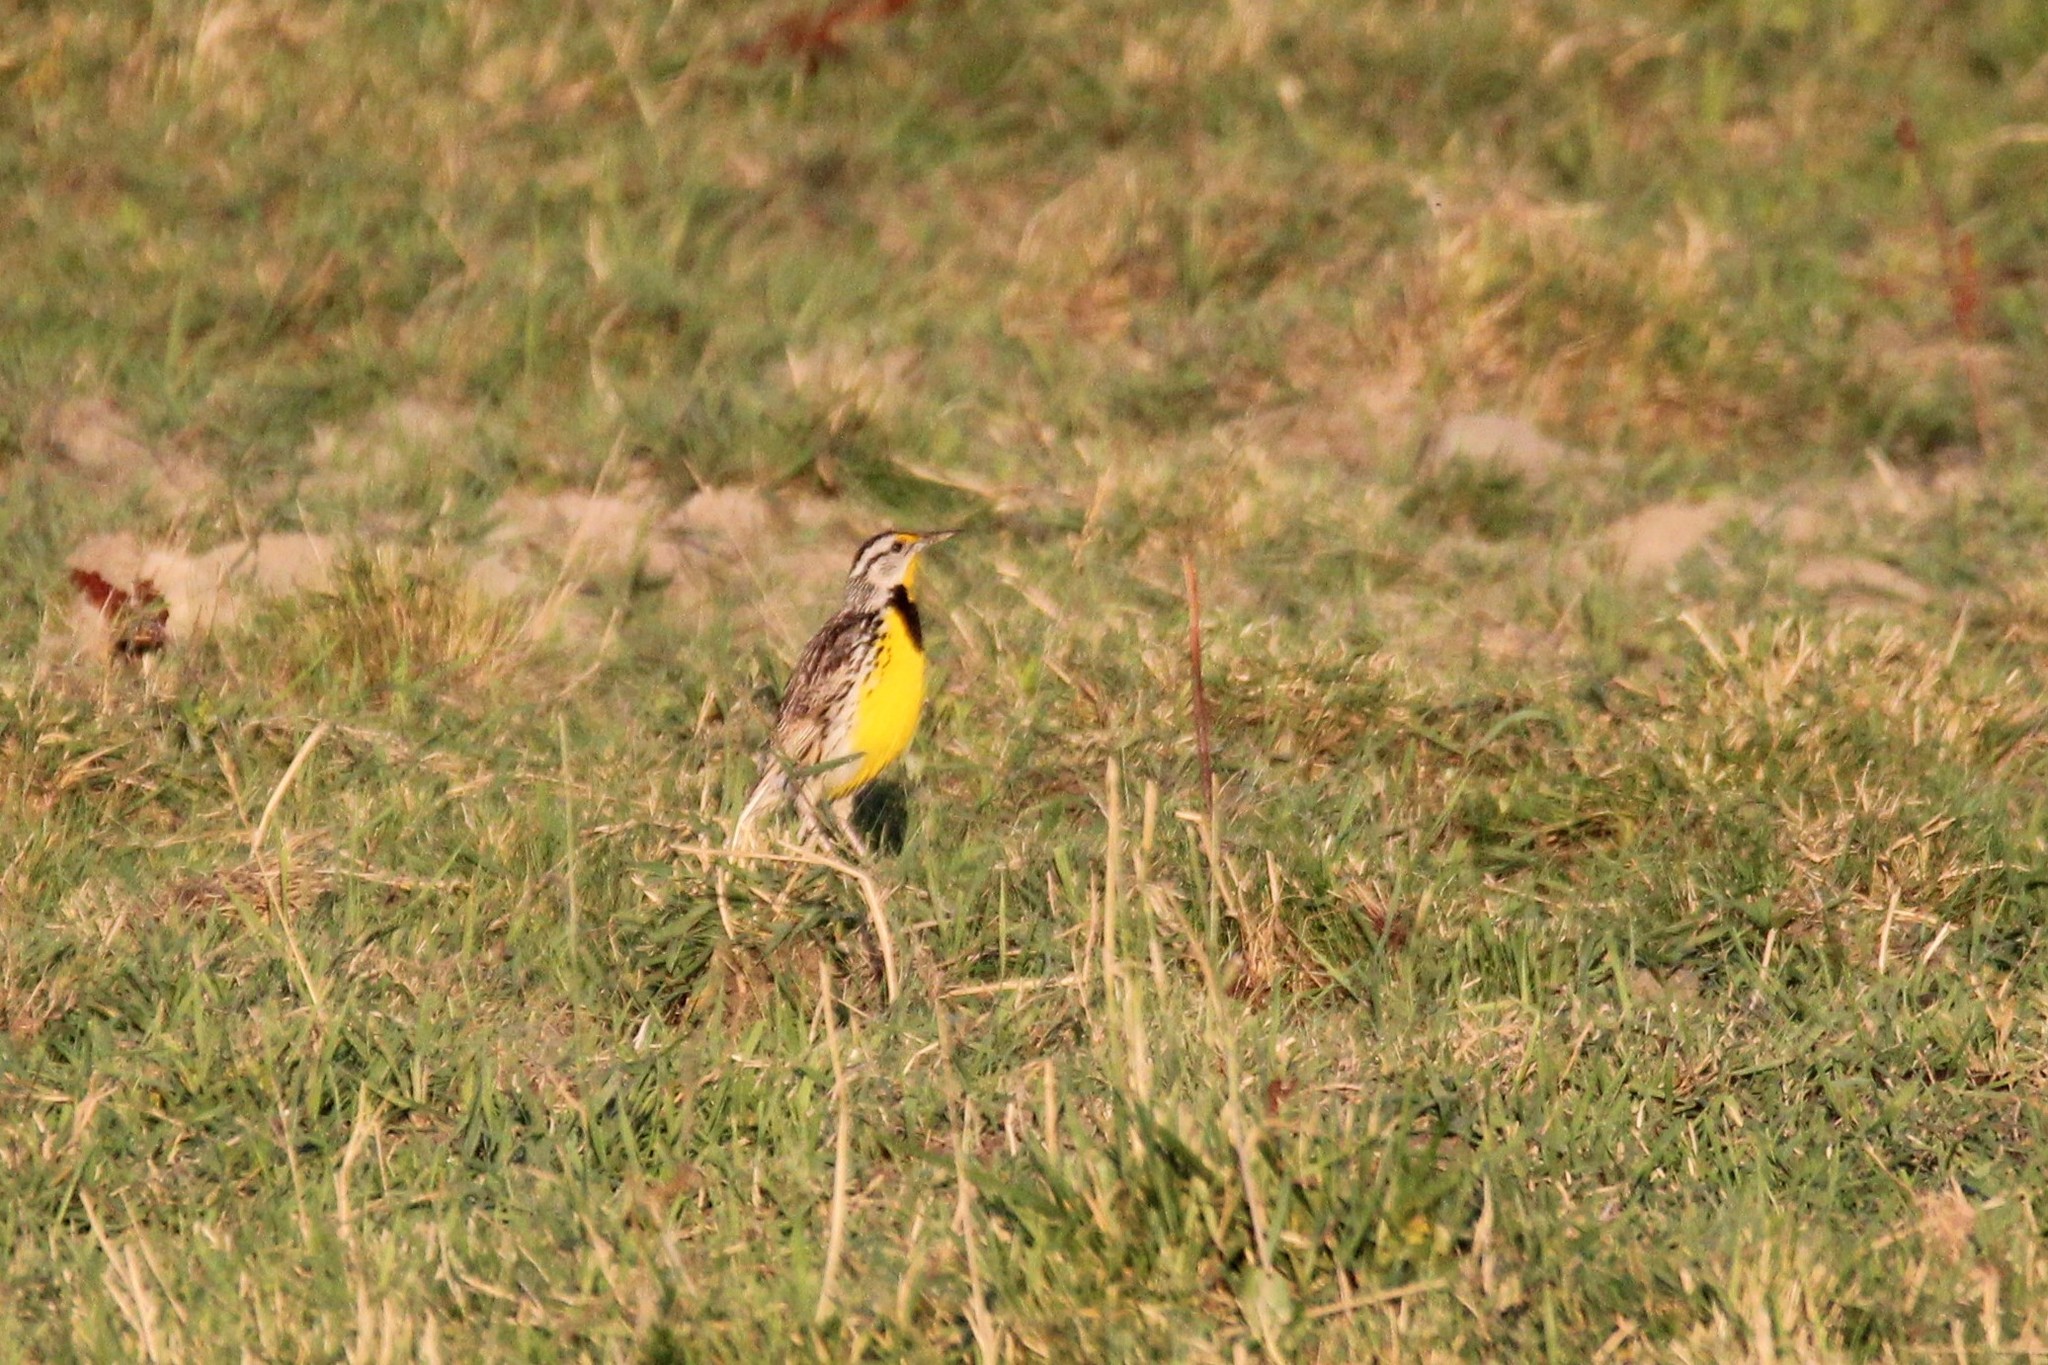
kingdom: Animalia
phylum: Chordata
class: Aves
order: Passeriformes
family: Icteridae
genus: Sturnella
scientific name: Sturnella magna
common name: Eastern meadowlark
